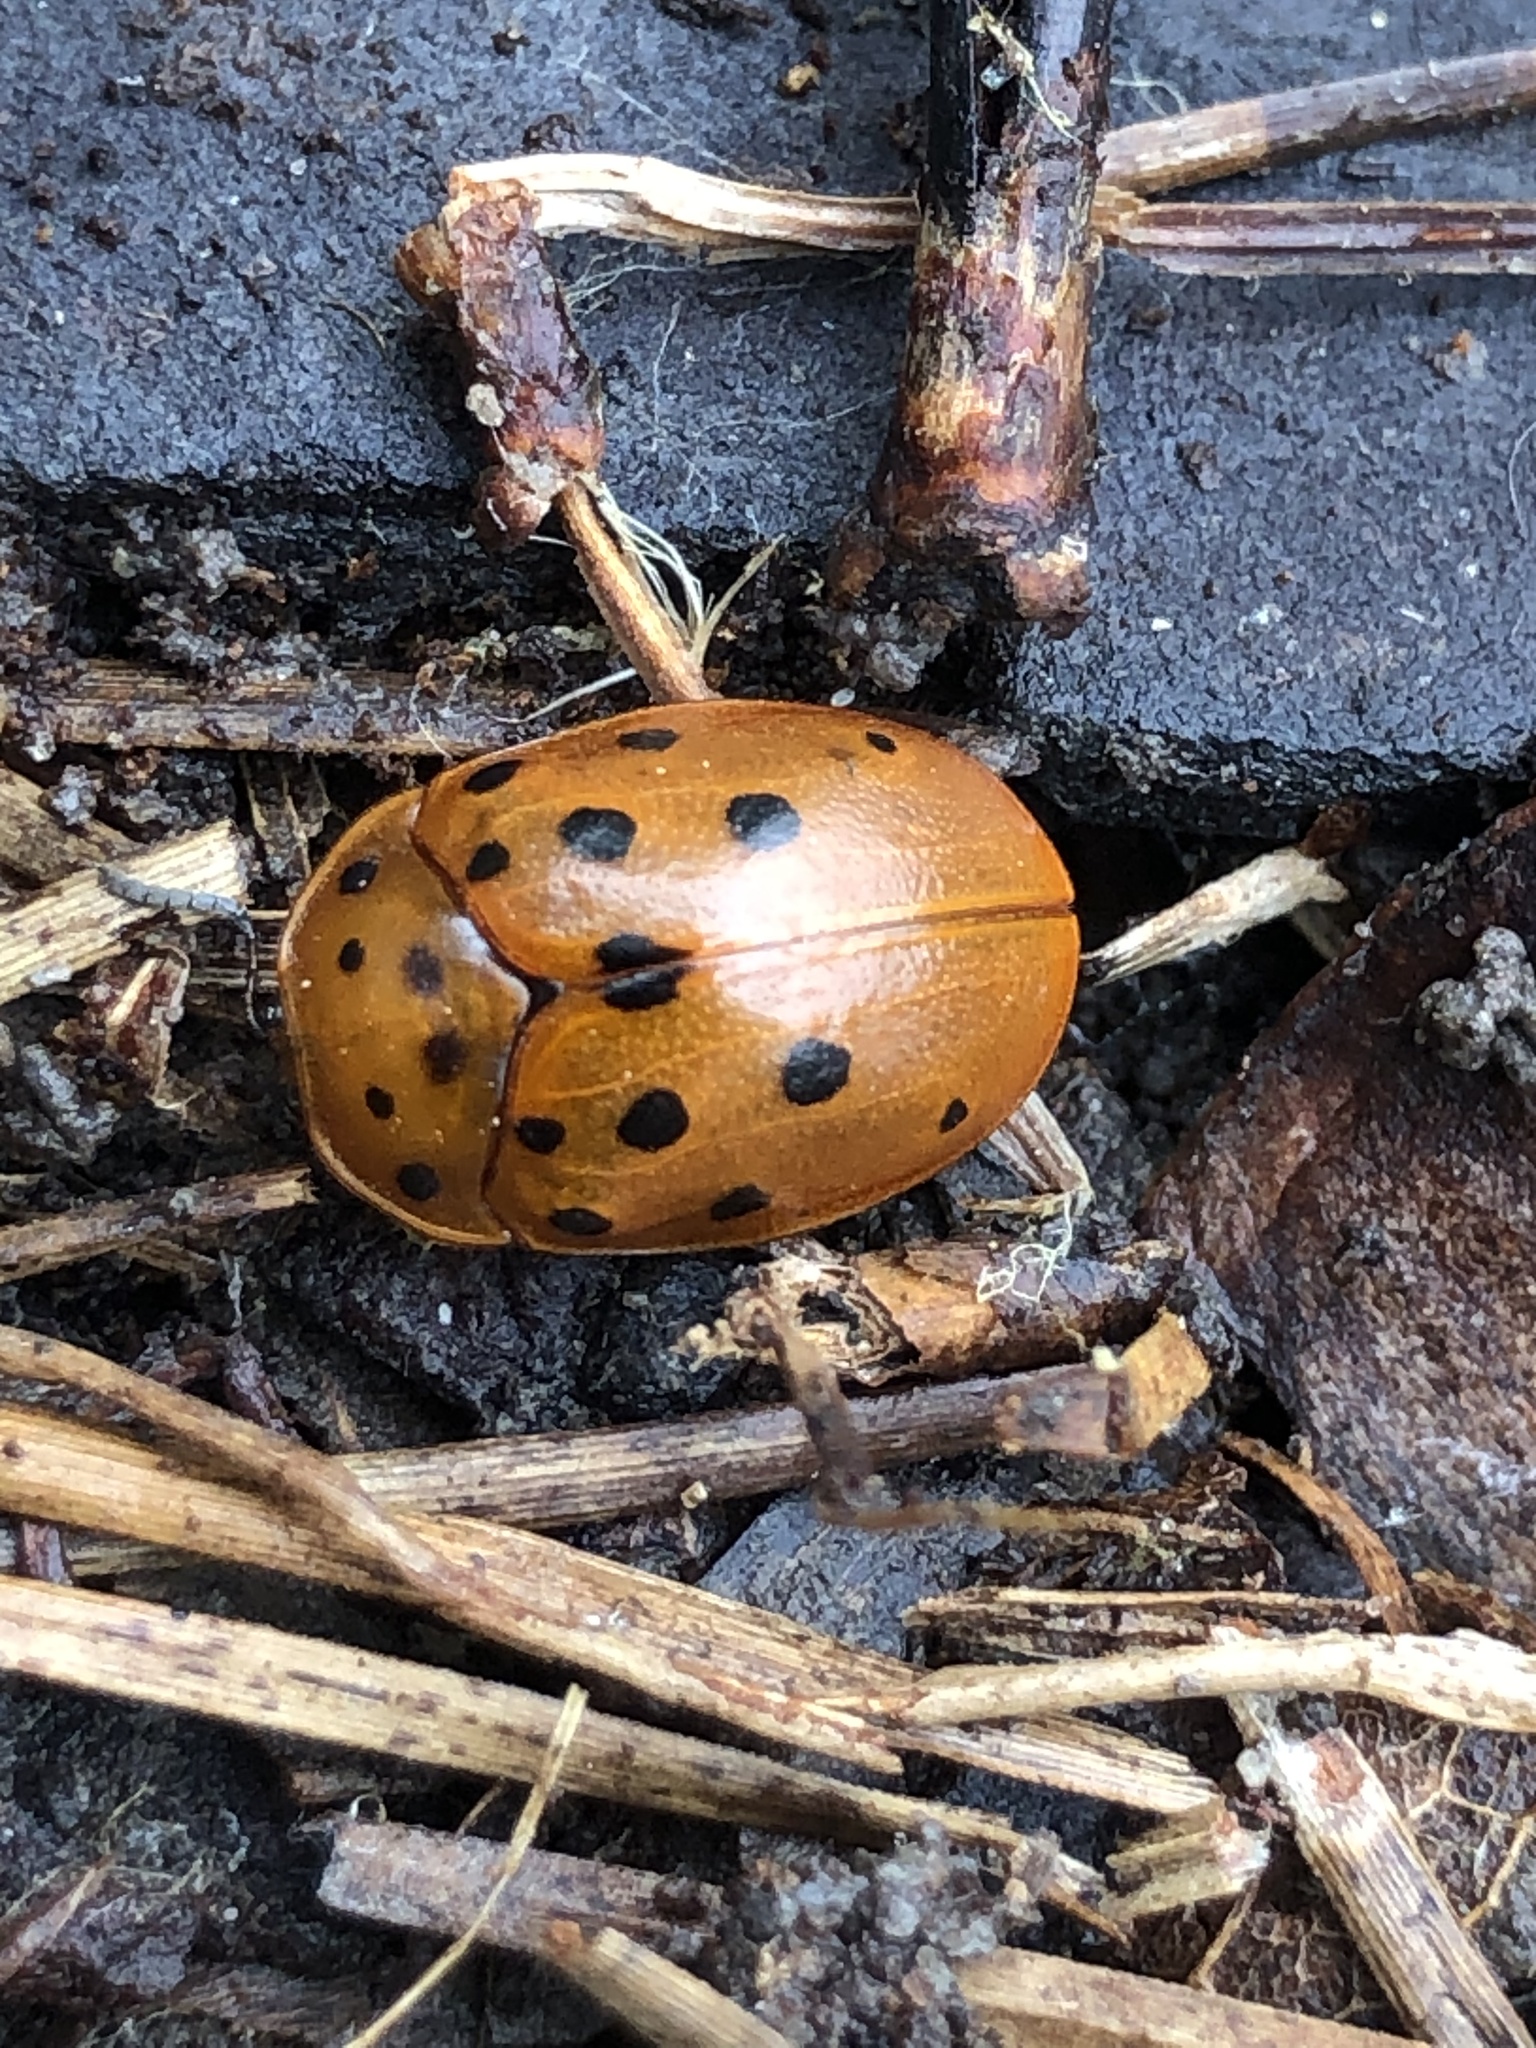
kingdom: Animalia
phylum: Arthropoda
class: Insecta
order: Coleoptera
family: Chrysomelidae
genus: Chelymorpha
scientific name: Chelymorpha cassidea
